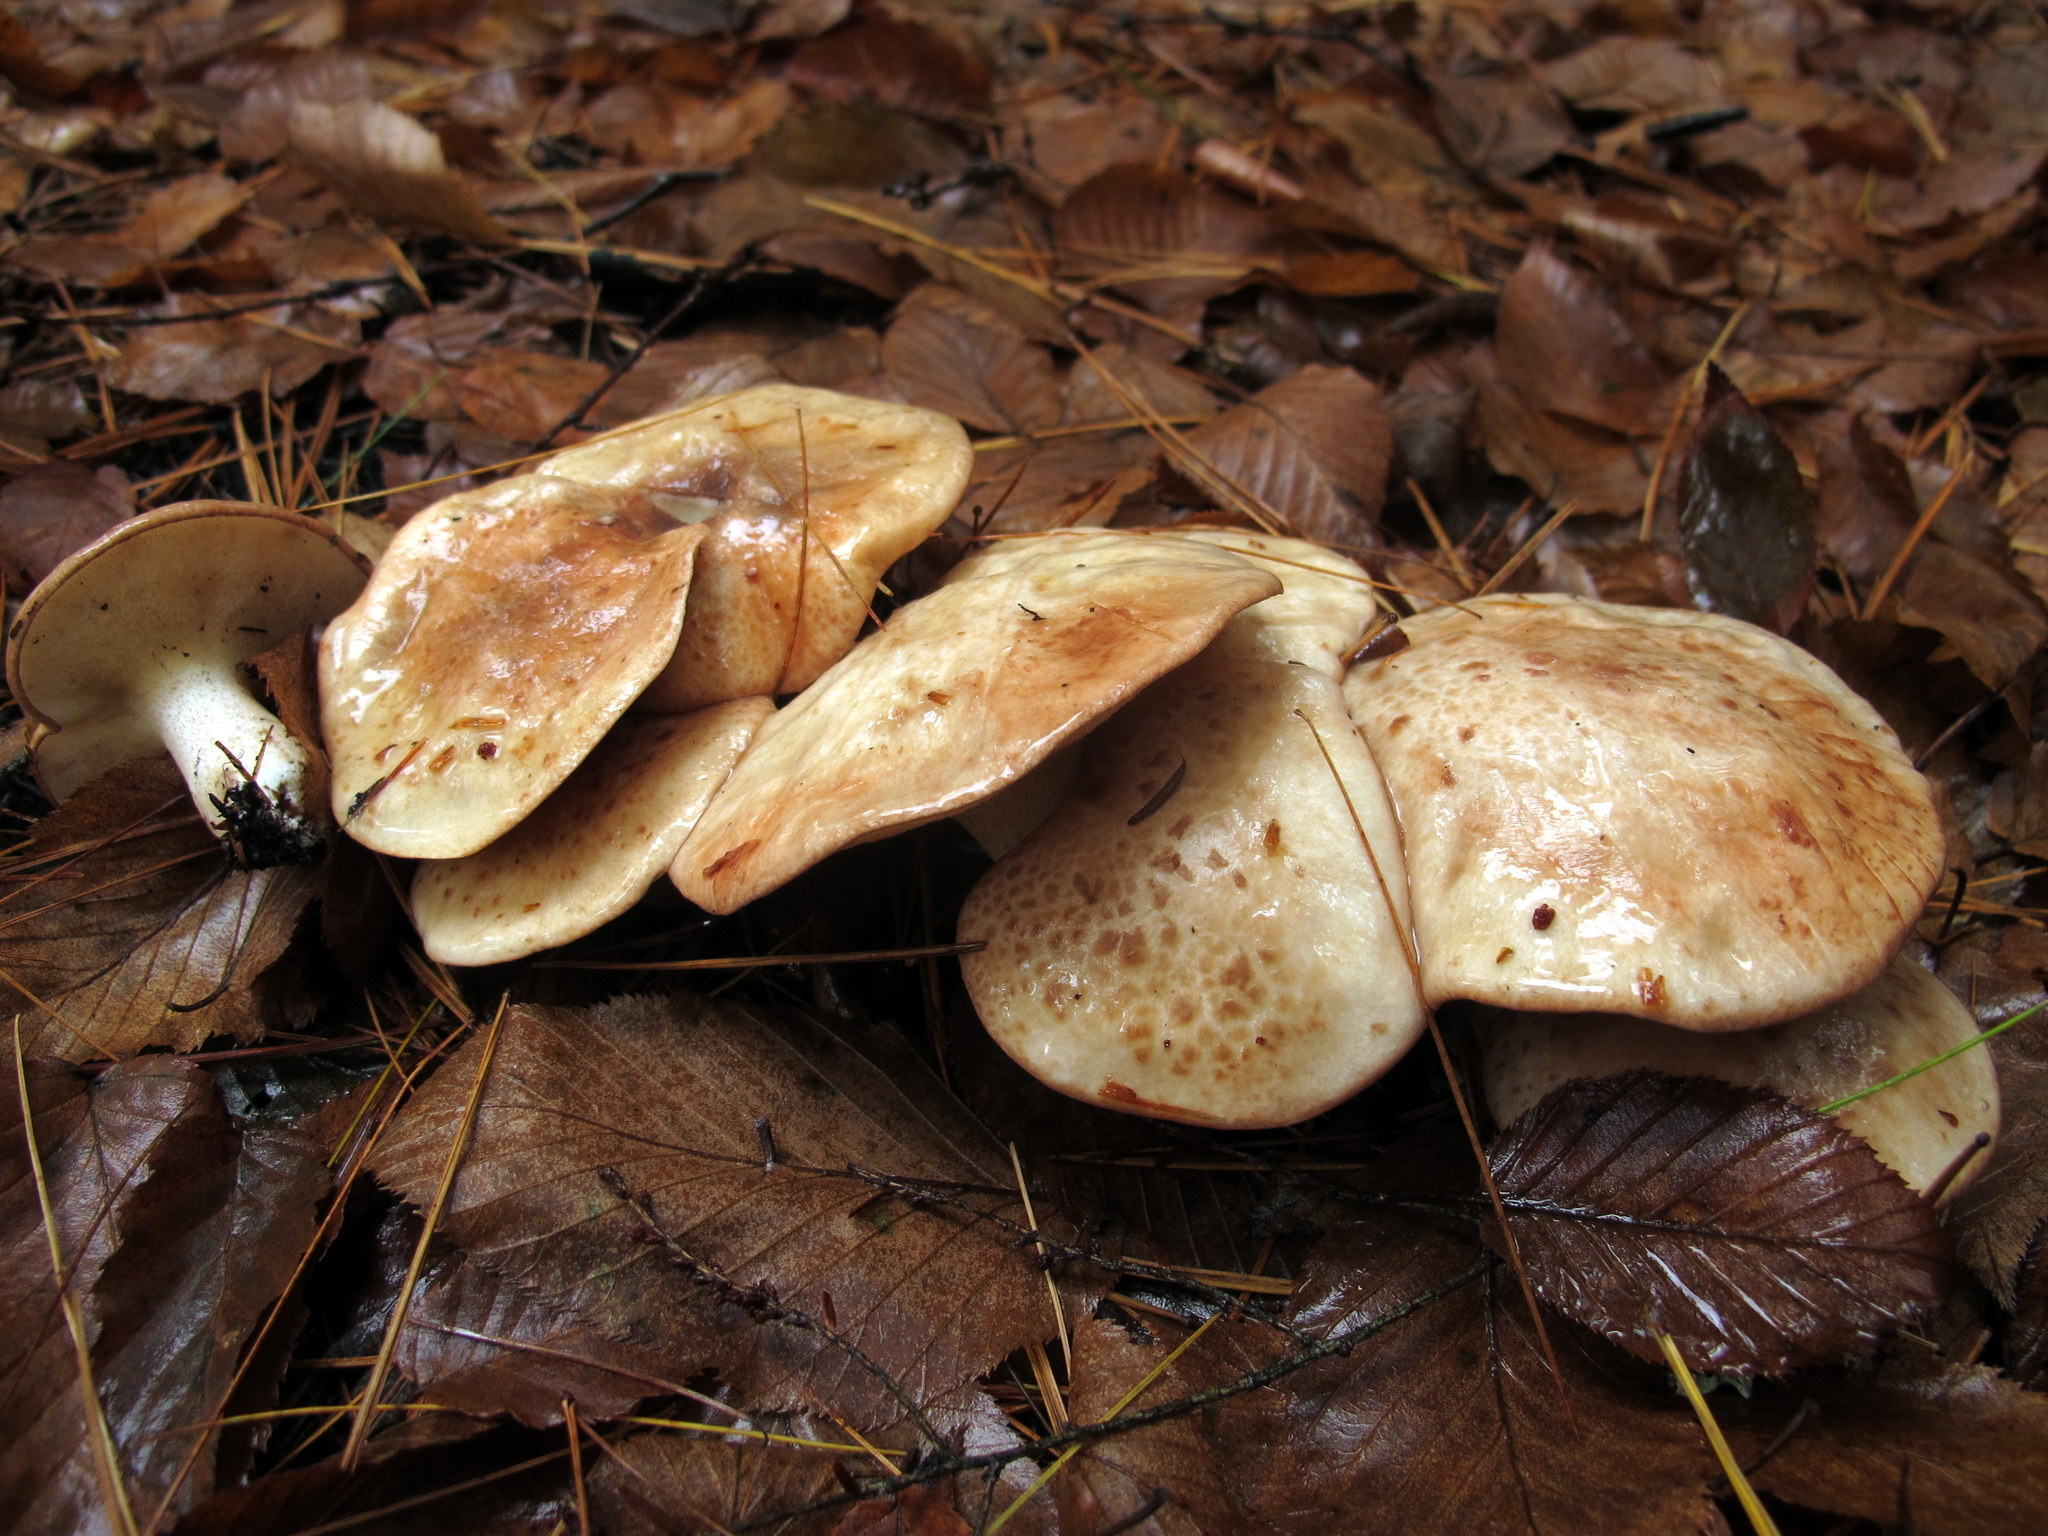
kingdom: Fungi
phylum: Basidiomycota
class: Agaricomycetes
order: Boletales
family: Suillaceae
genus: Suillus
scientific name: Suillus granulatus
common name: Weeping bolete
